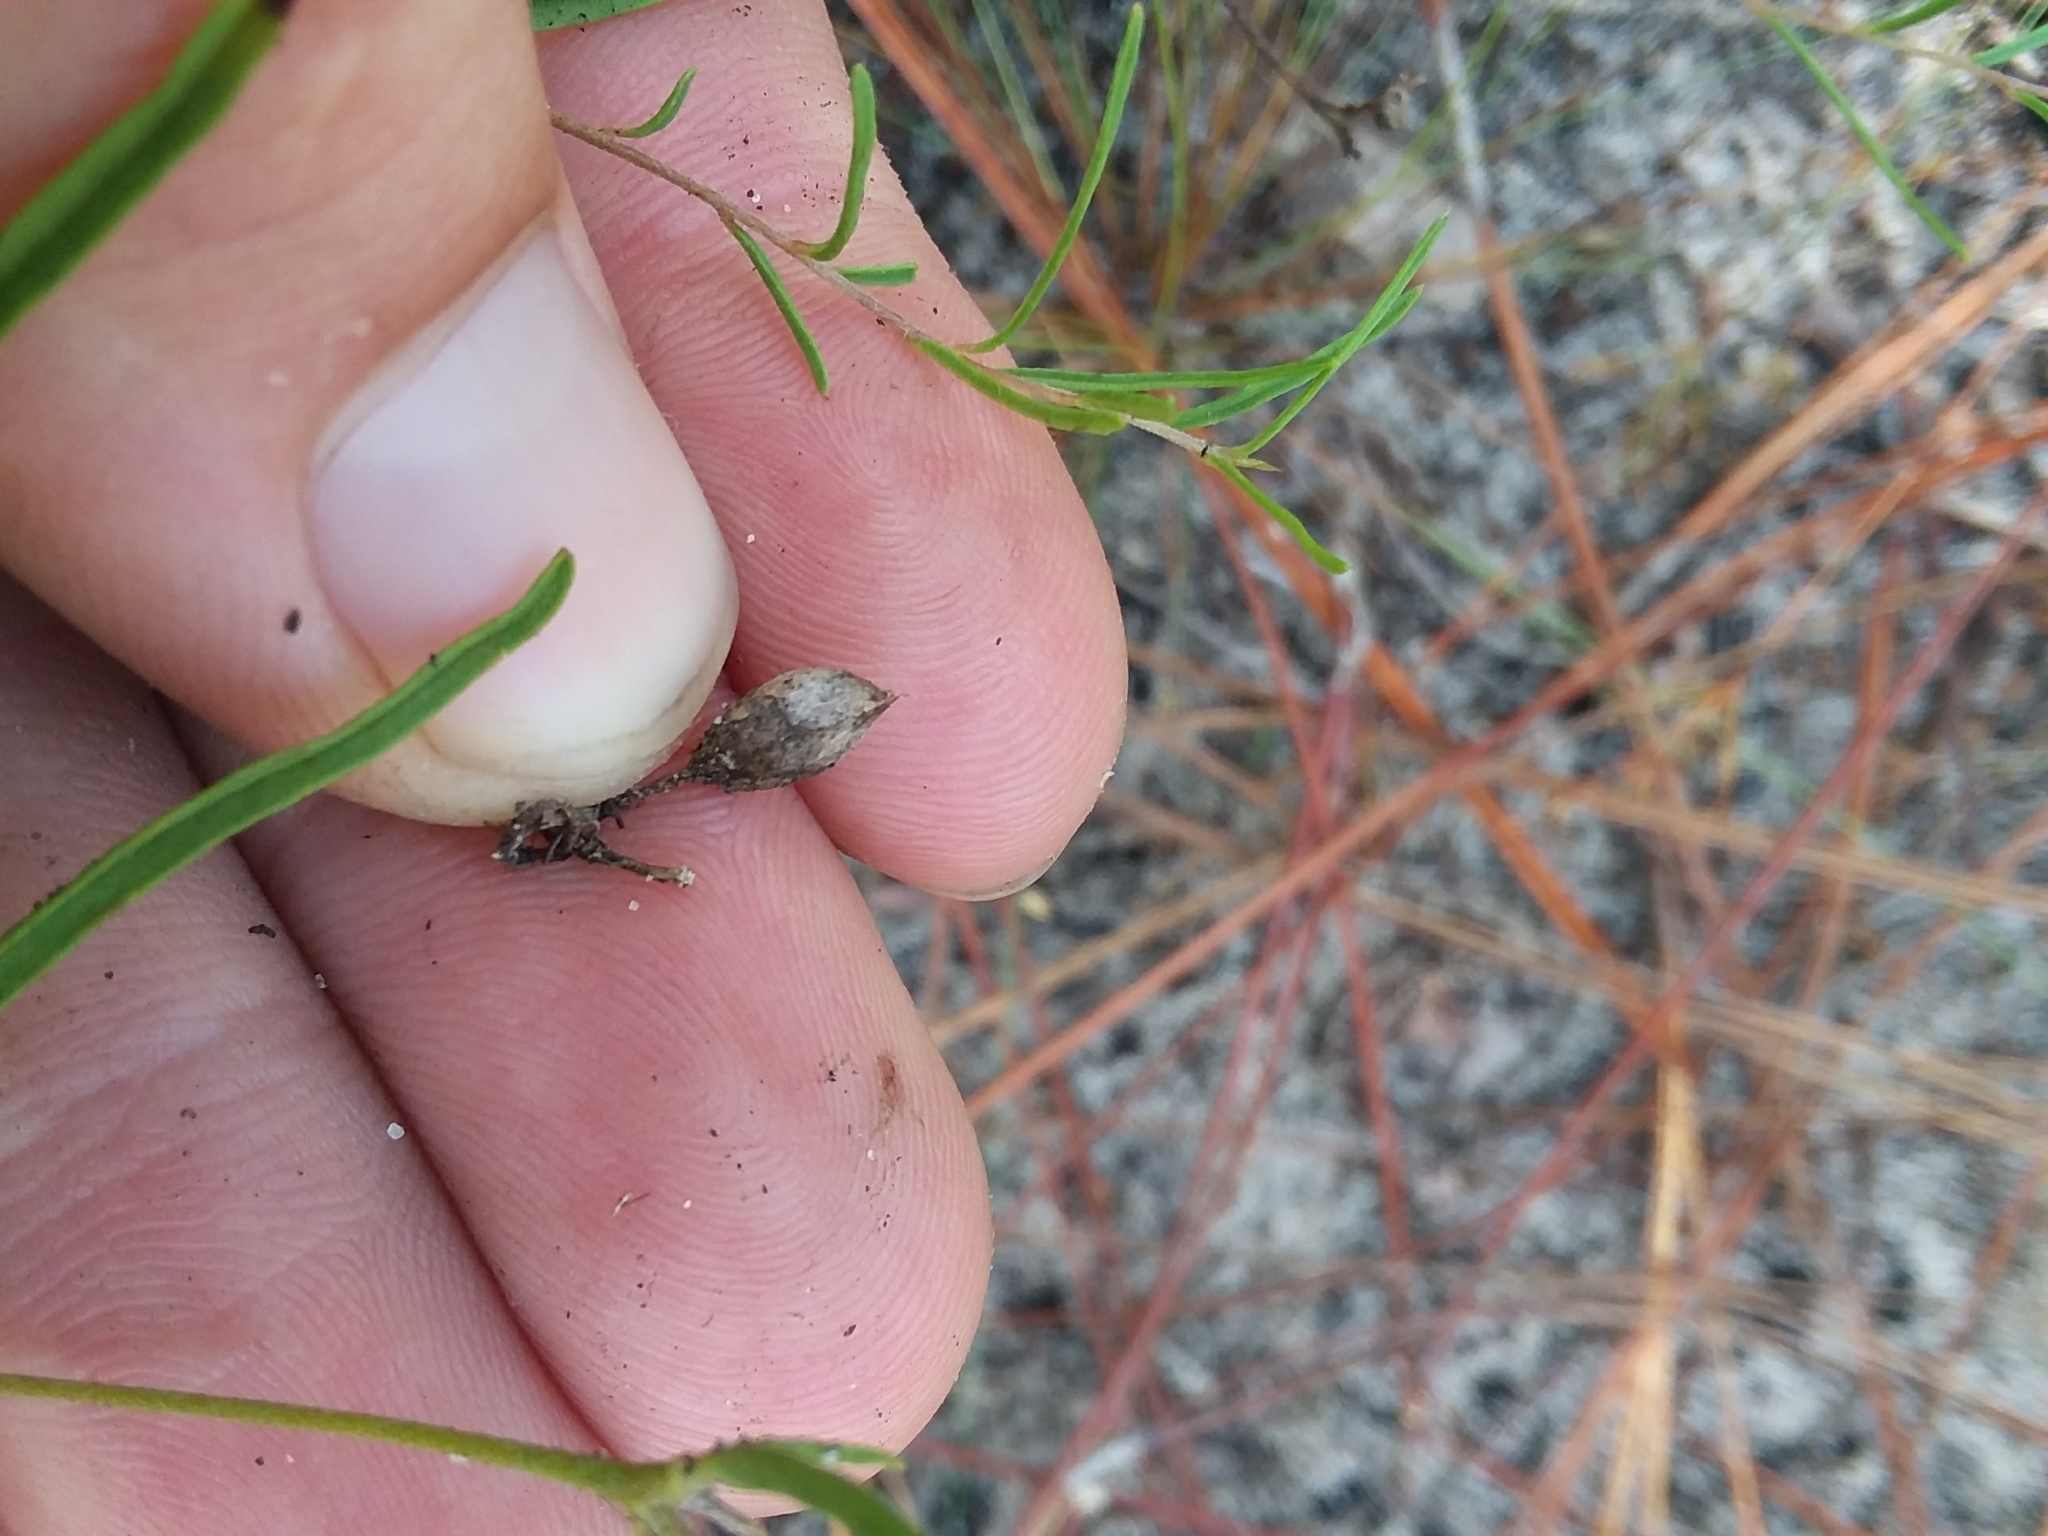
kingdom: Plantae
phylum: Tracheophyta
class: Magnoliopsida
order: Solanales
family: Convolvulaceae
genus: Stylisma
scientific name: Stylisma pickeringii
